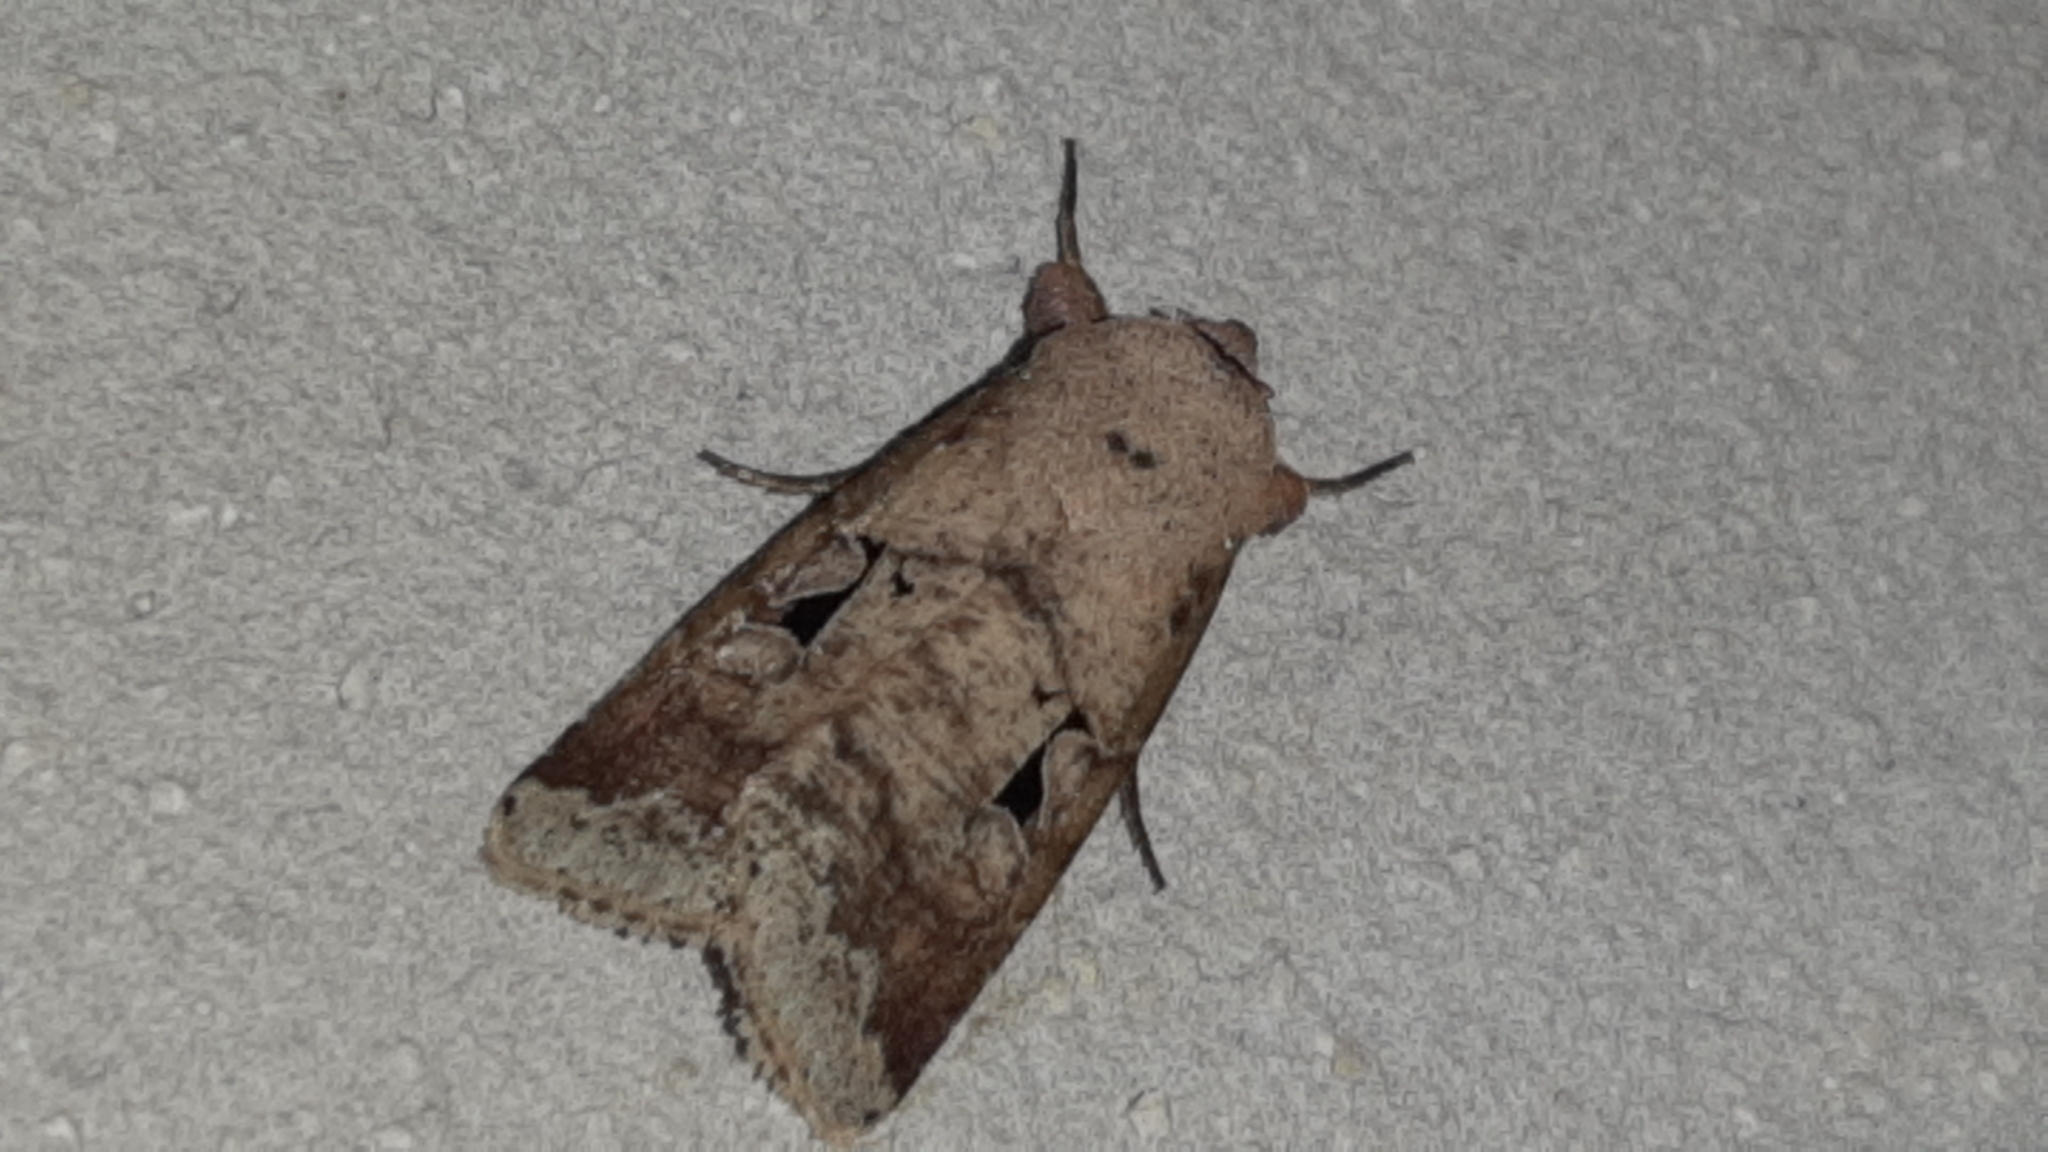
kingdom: Animalia
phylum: Arthropoda
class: Insecta
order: Lepidoptera
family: Noctuidae
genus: Praina
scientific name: Praina
